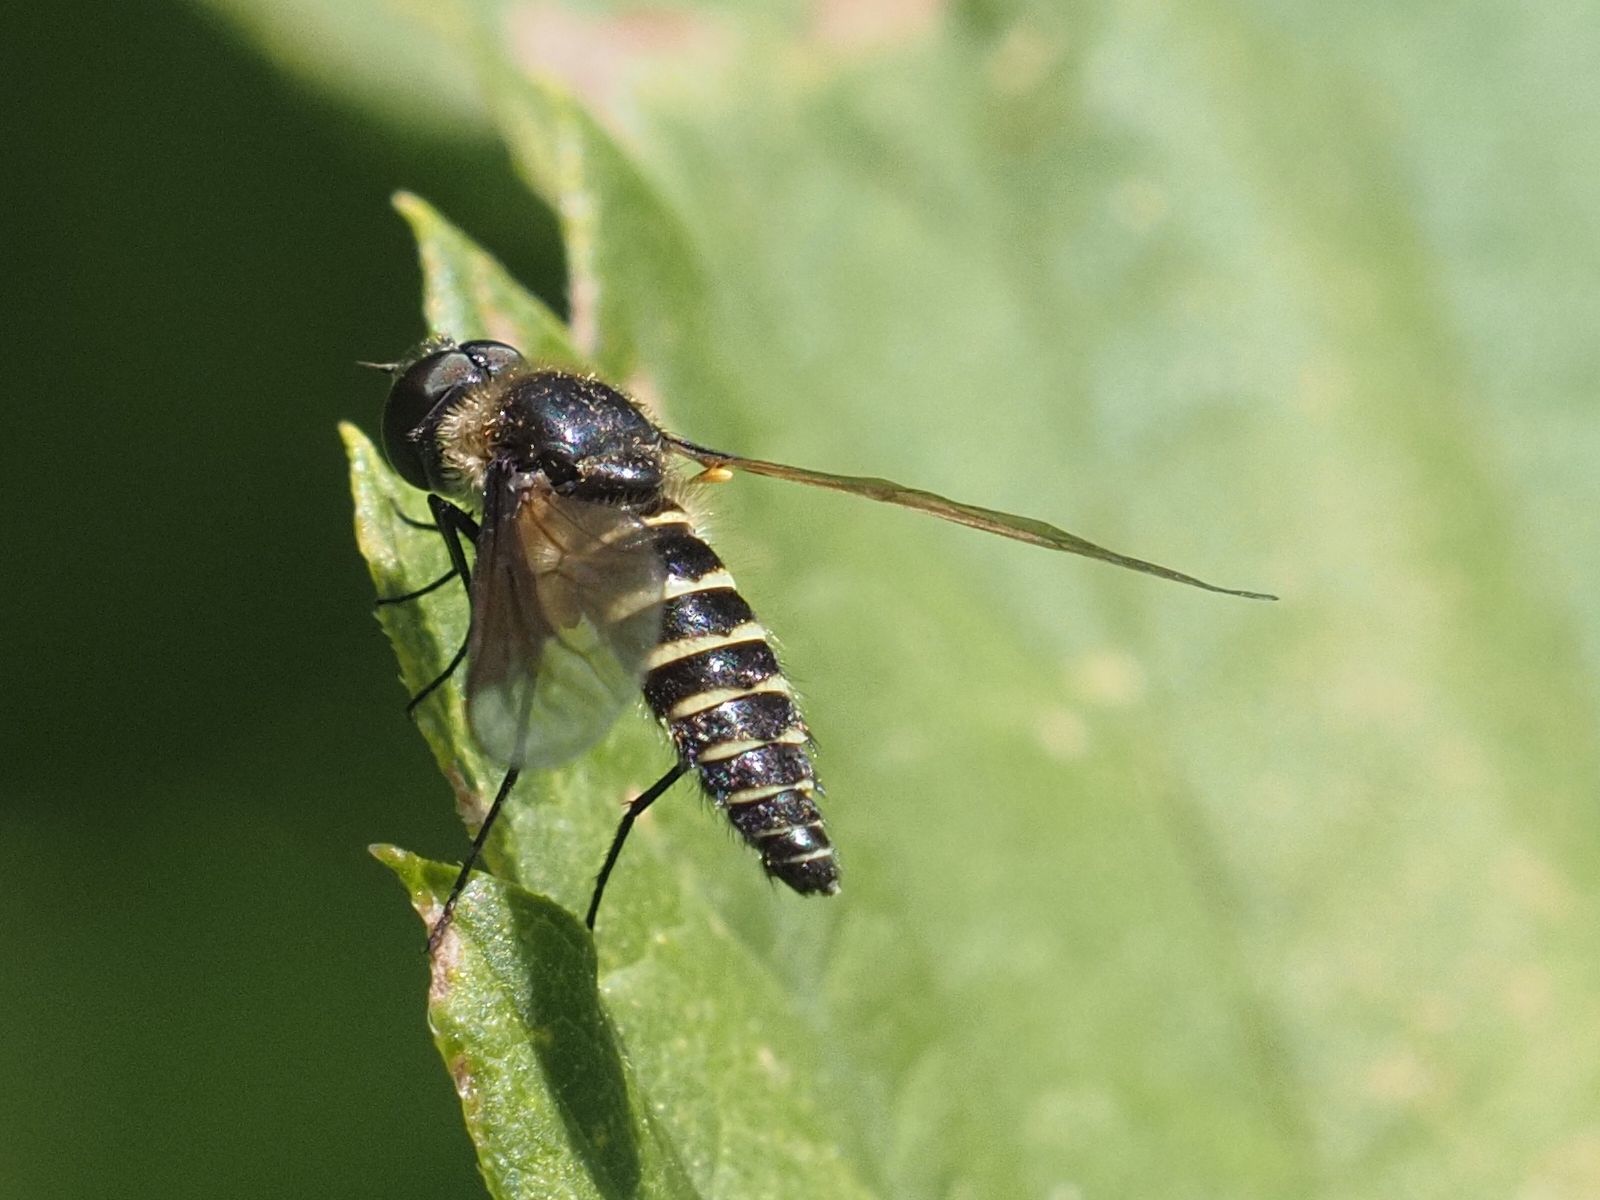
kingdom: Animalia
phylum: Arthropoda
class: Insecta
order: Diptera
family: Bombyliidae
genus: Lomatia
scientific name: Lomatia lateralis
